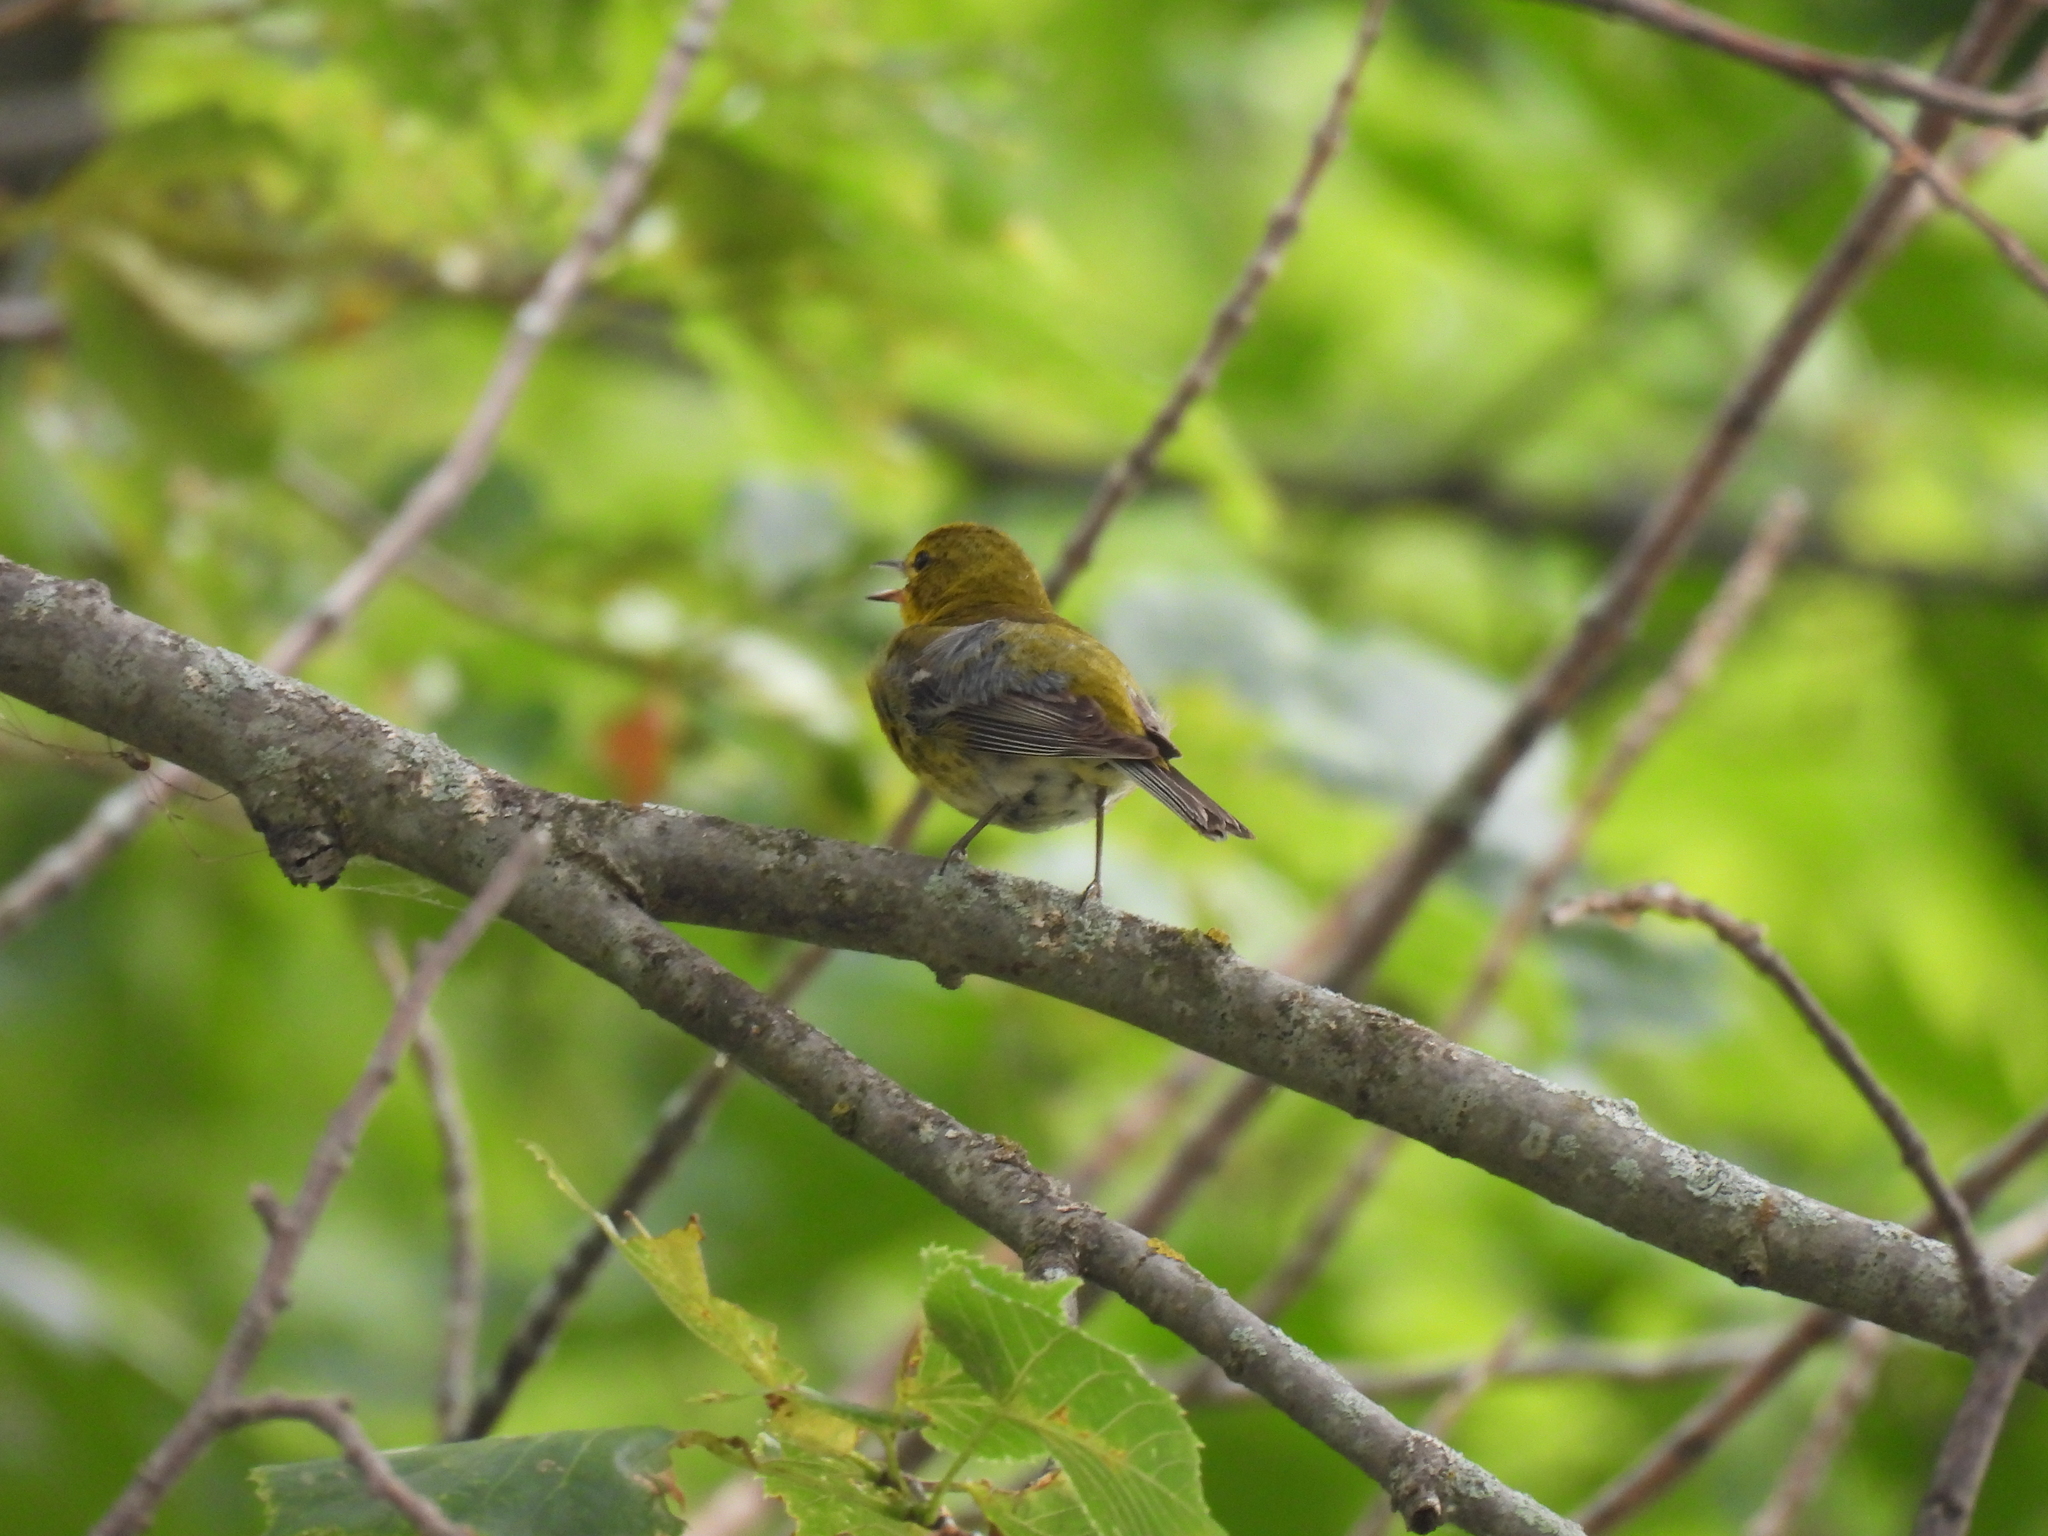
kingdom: Animalia
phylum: Chordata
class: Aves
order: Passeriformes
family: Parulidae
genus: Setophaga
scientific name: Setophaga pinus
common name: Pine warbler
